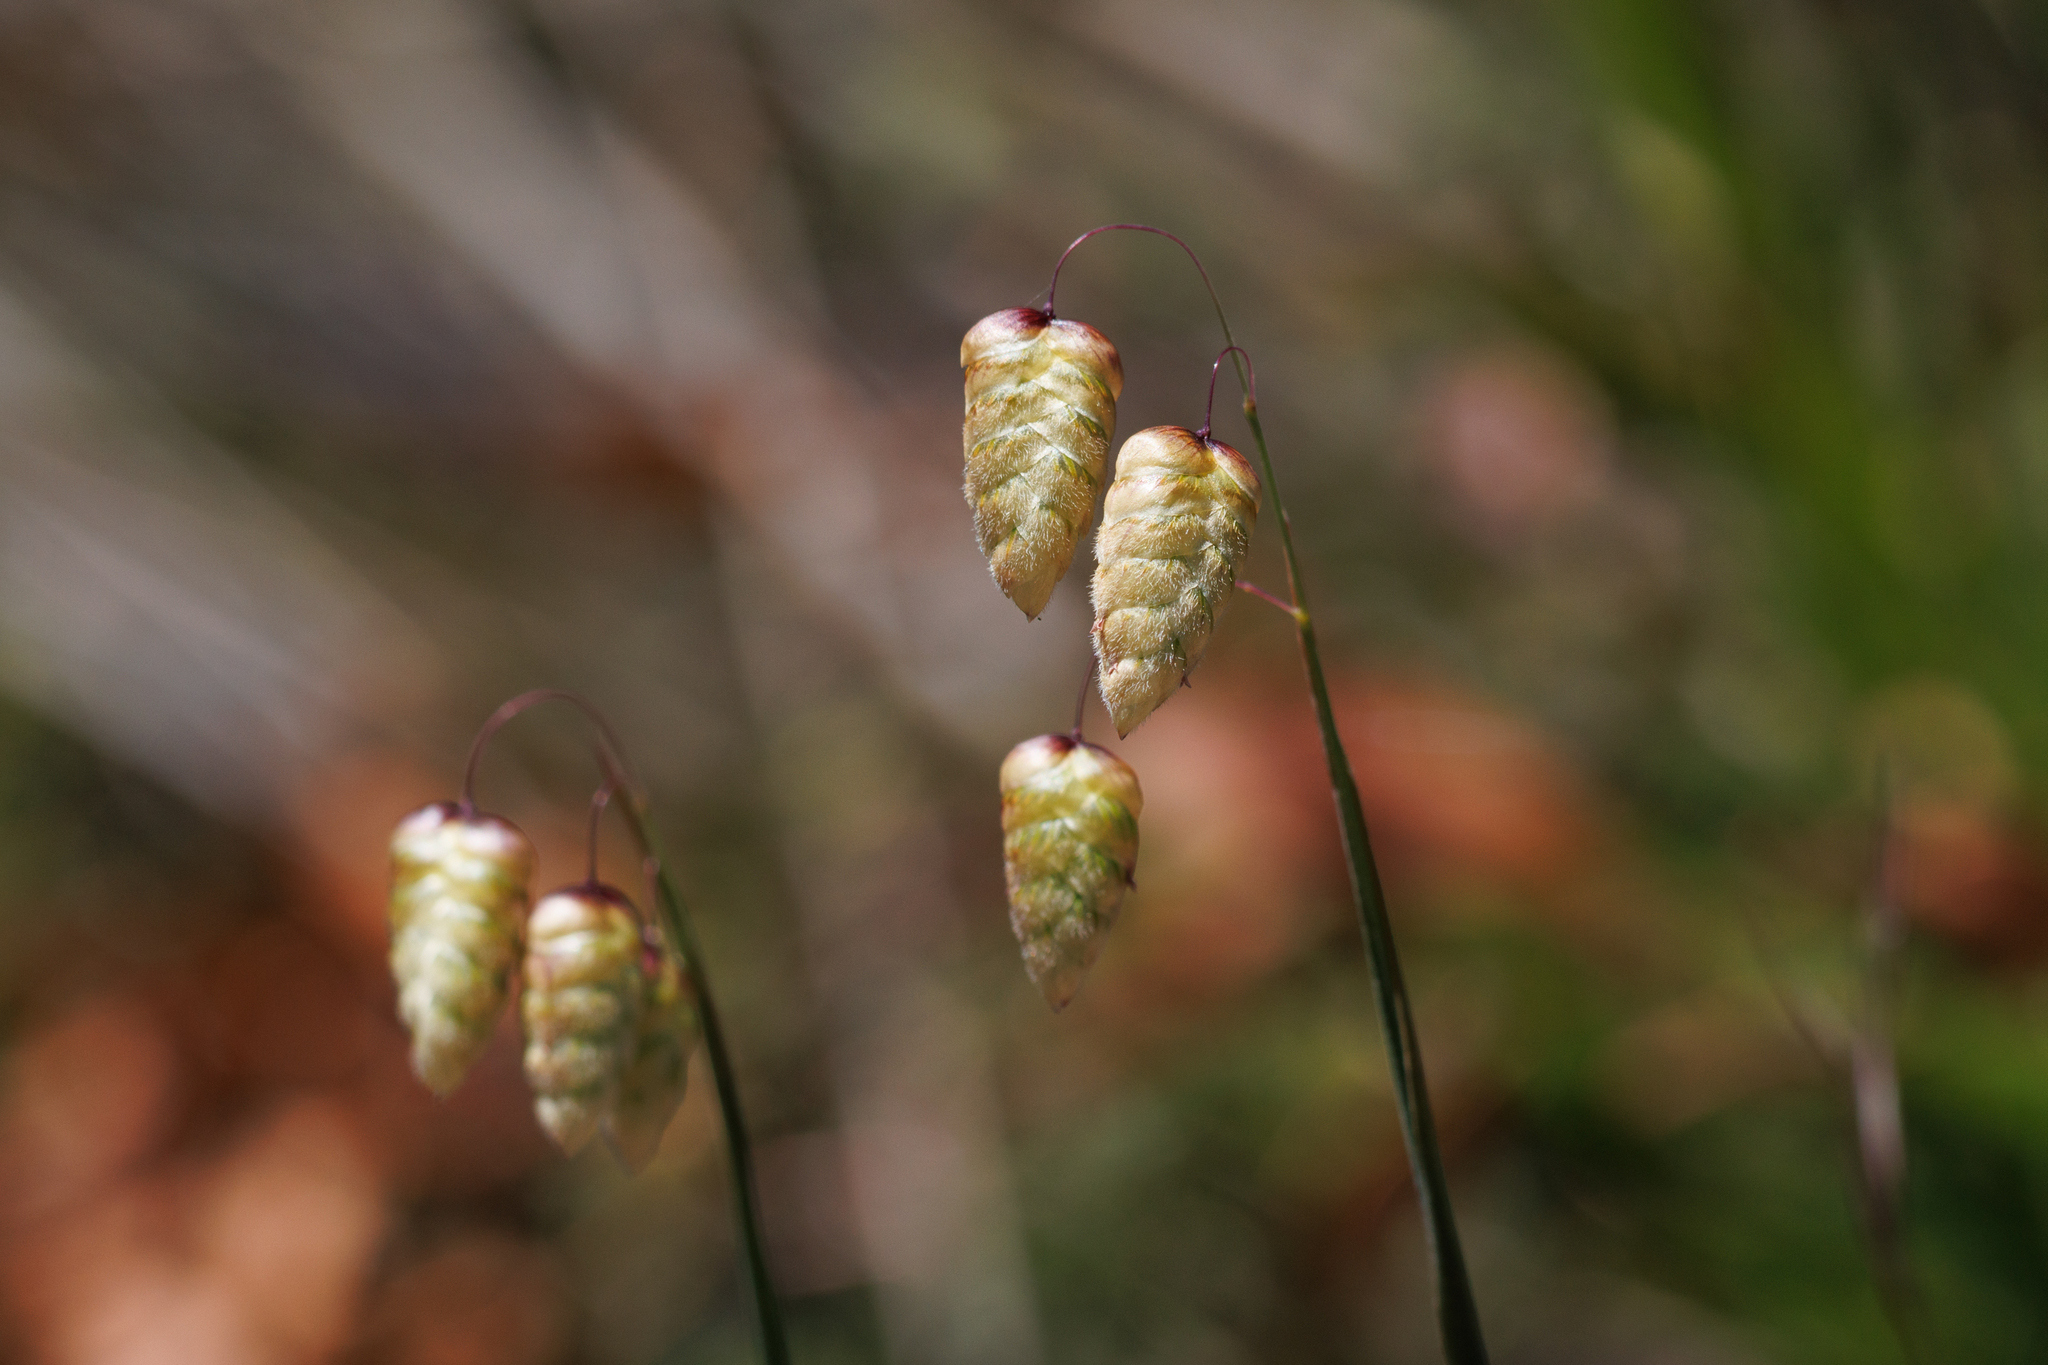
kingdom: Plantae
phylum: Tracheophyta
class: Liliopsida
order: Poales
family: Poaceae
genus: Briza
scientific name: Briza maxima
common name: Big quakinggrass
